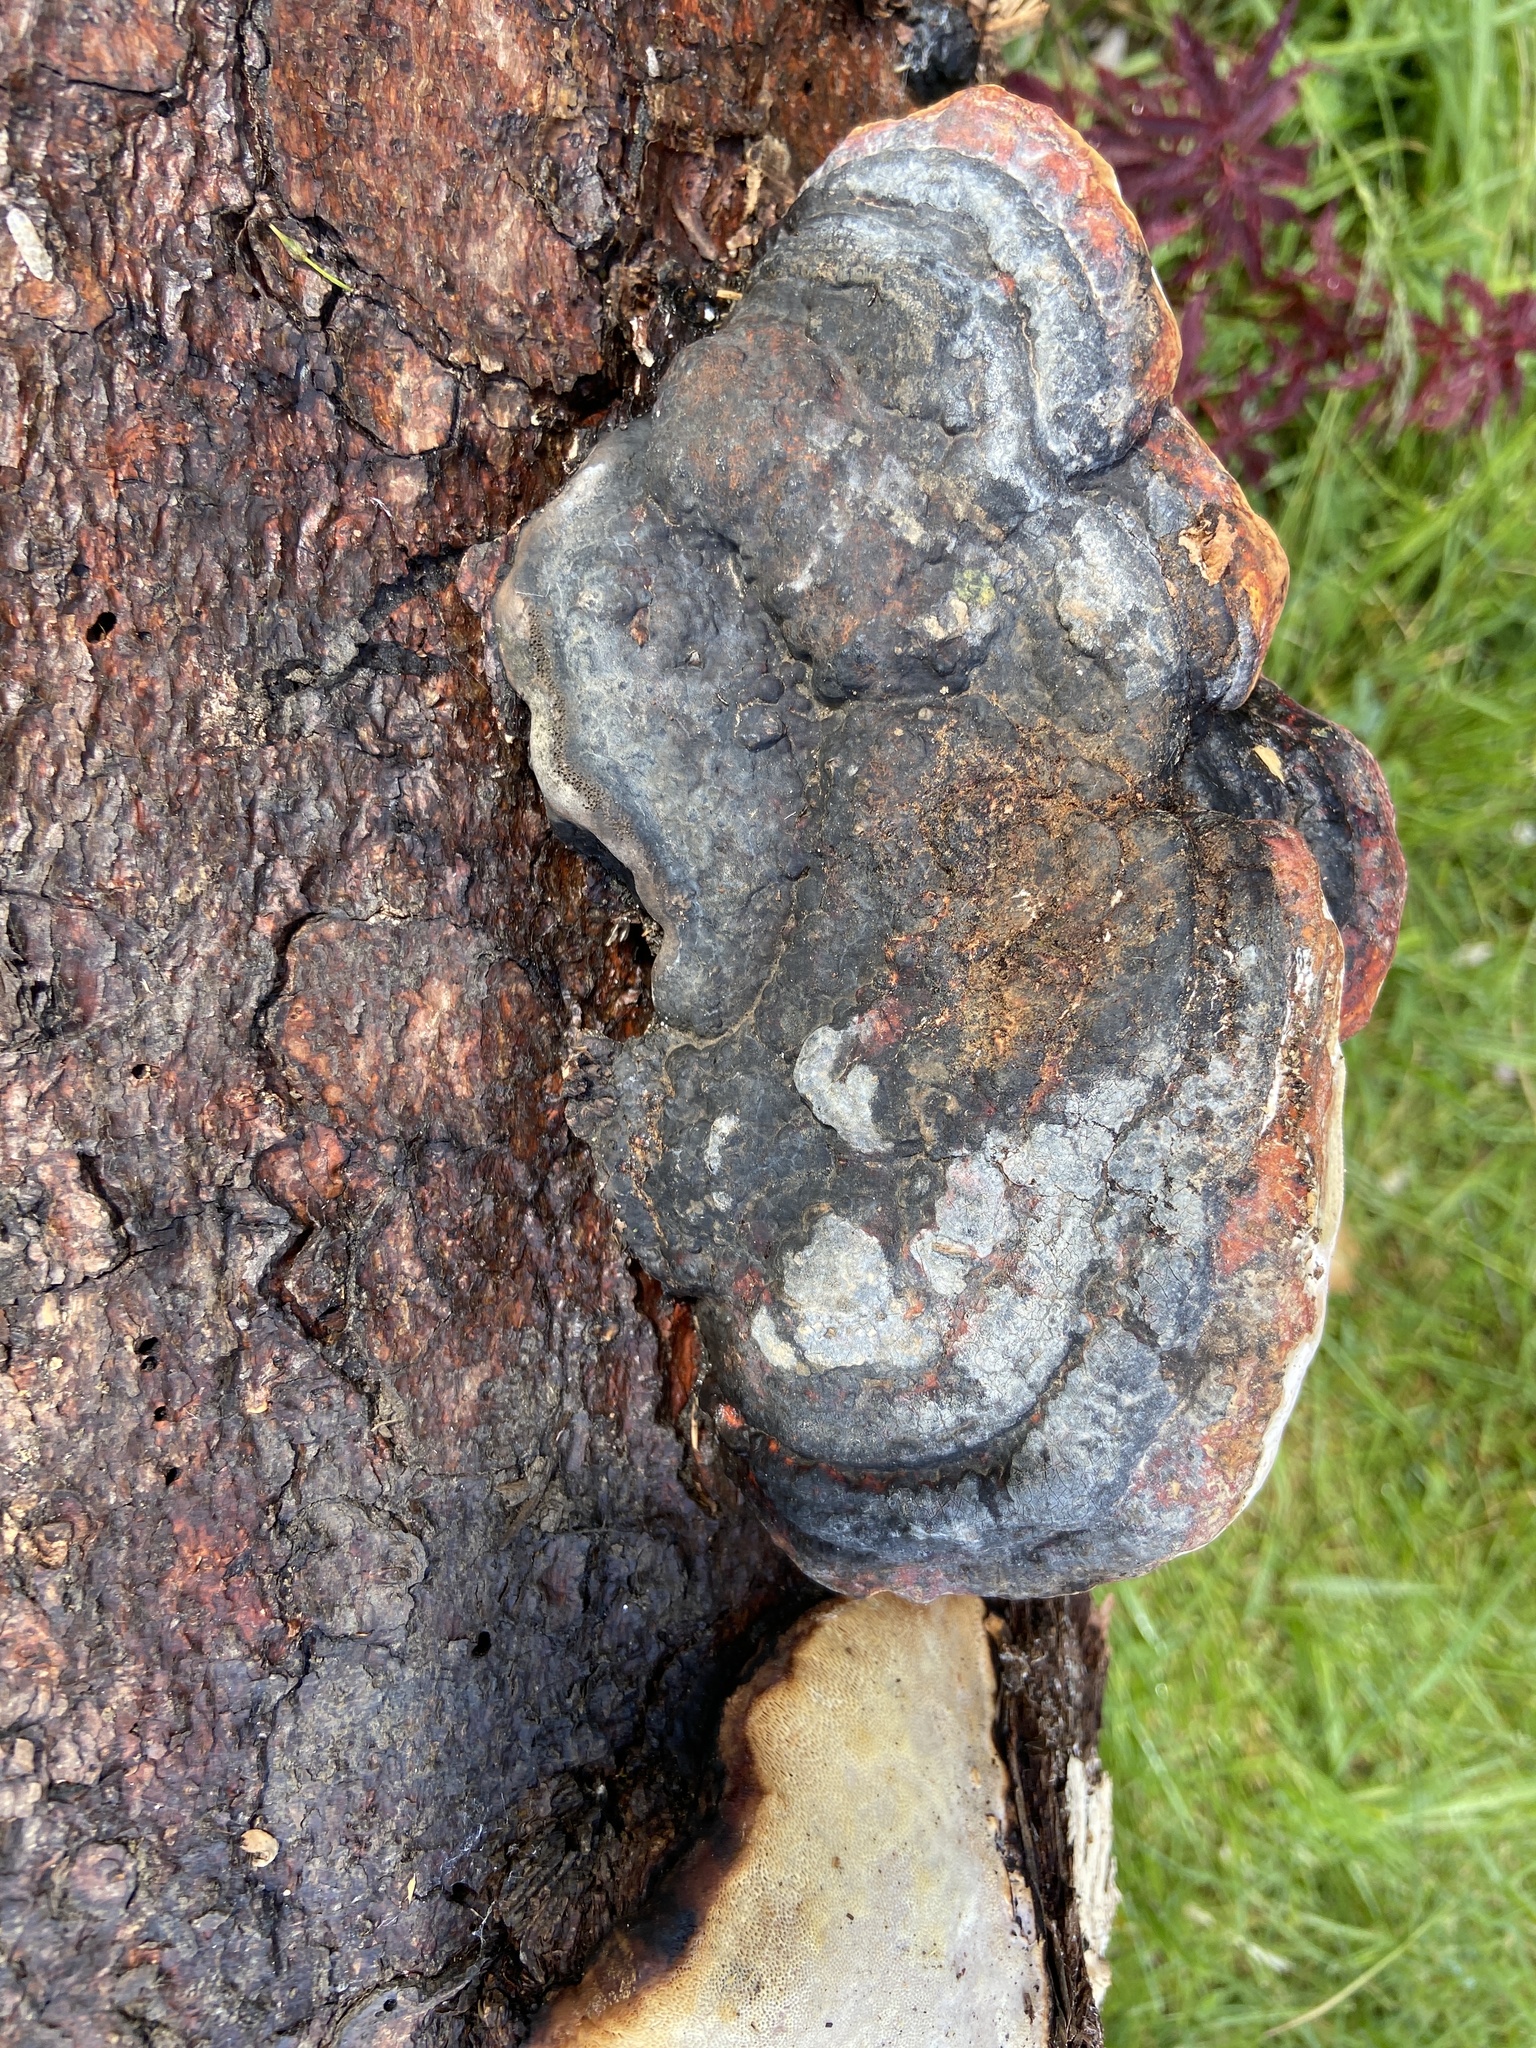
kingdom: Fungi
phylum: Basidiomycota
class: Agaricomycetes
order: Polyporales
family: Fomitopsidaceae
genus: Fomitopsis
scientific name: Fomitopsis pinicola
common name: Red-belted bracket
